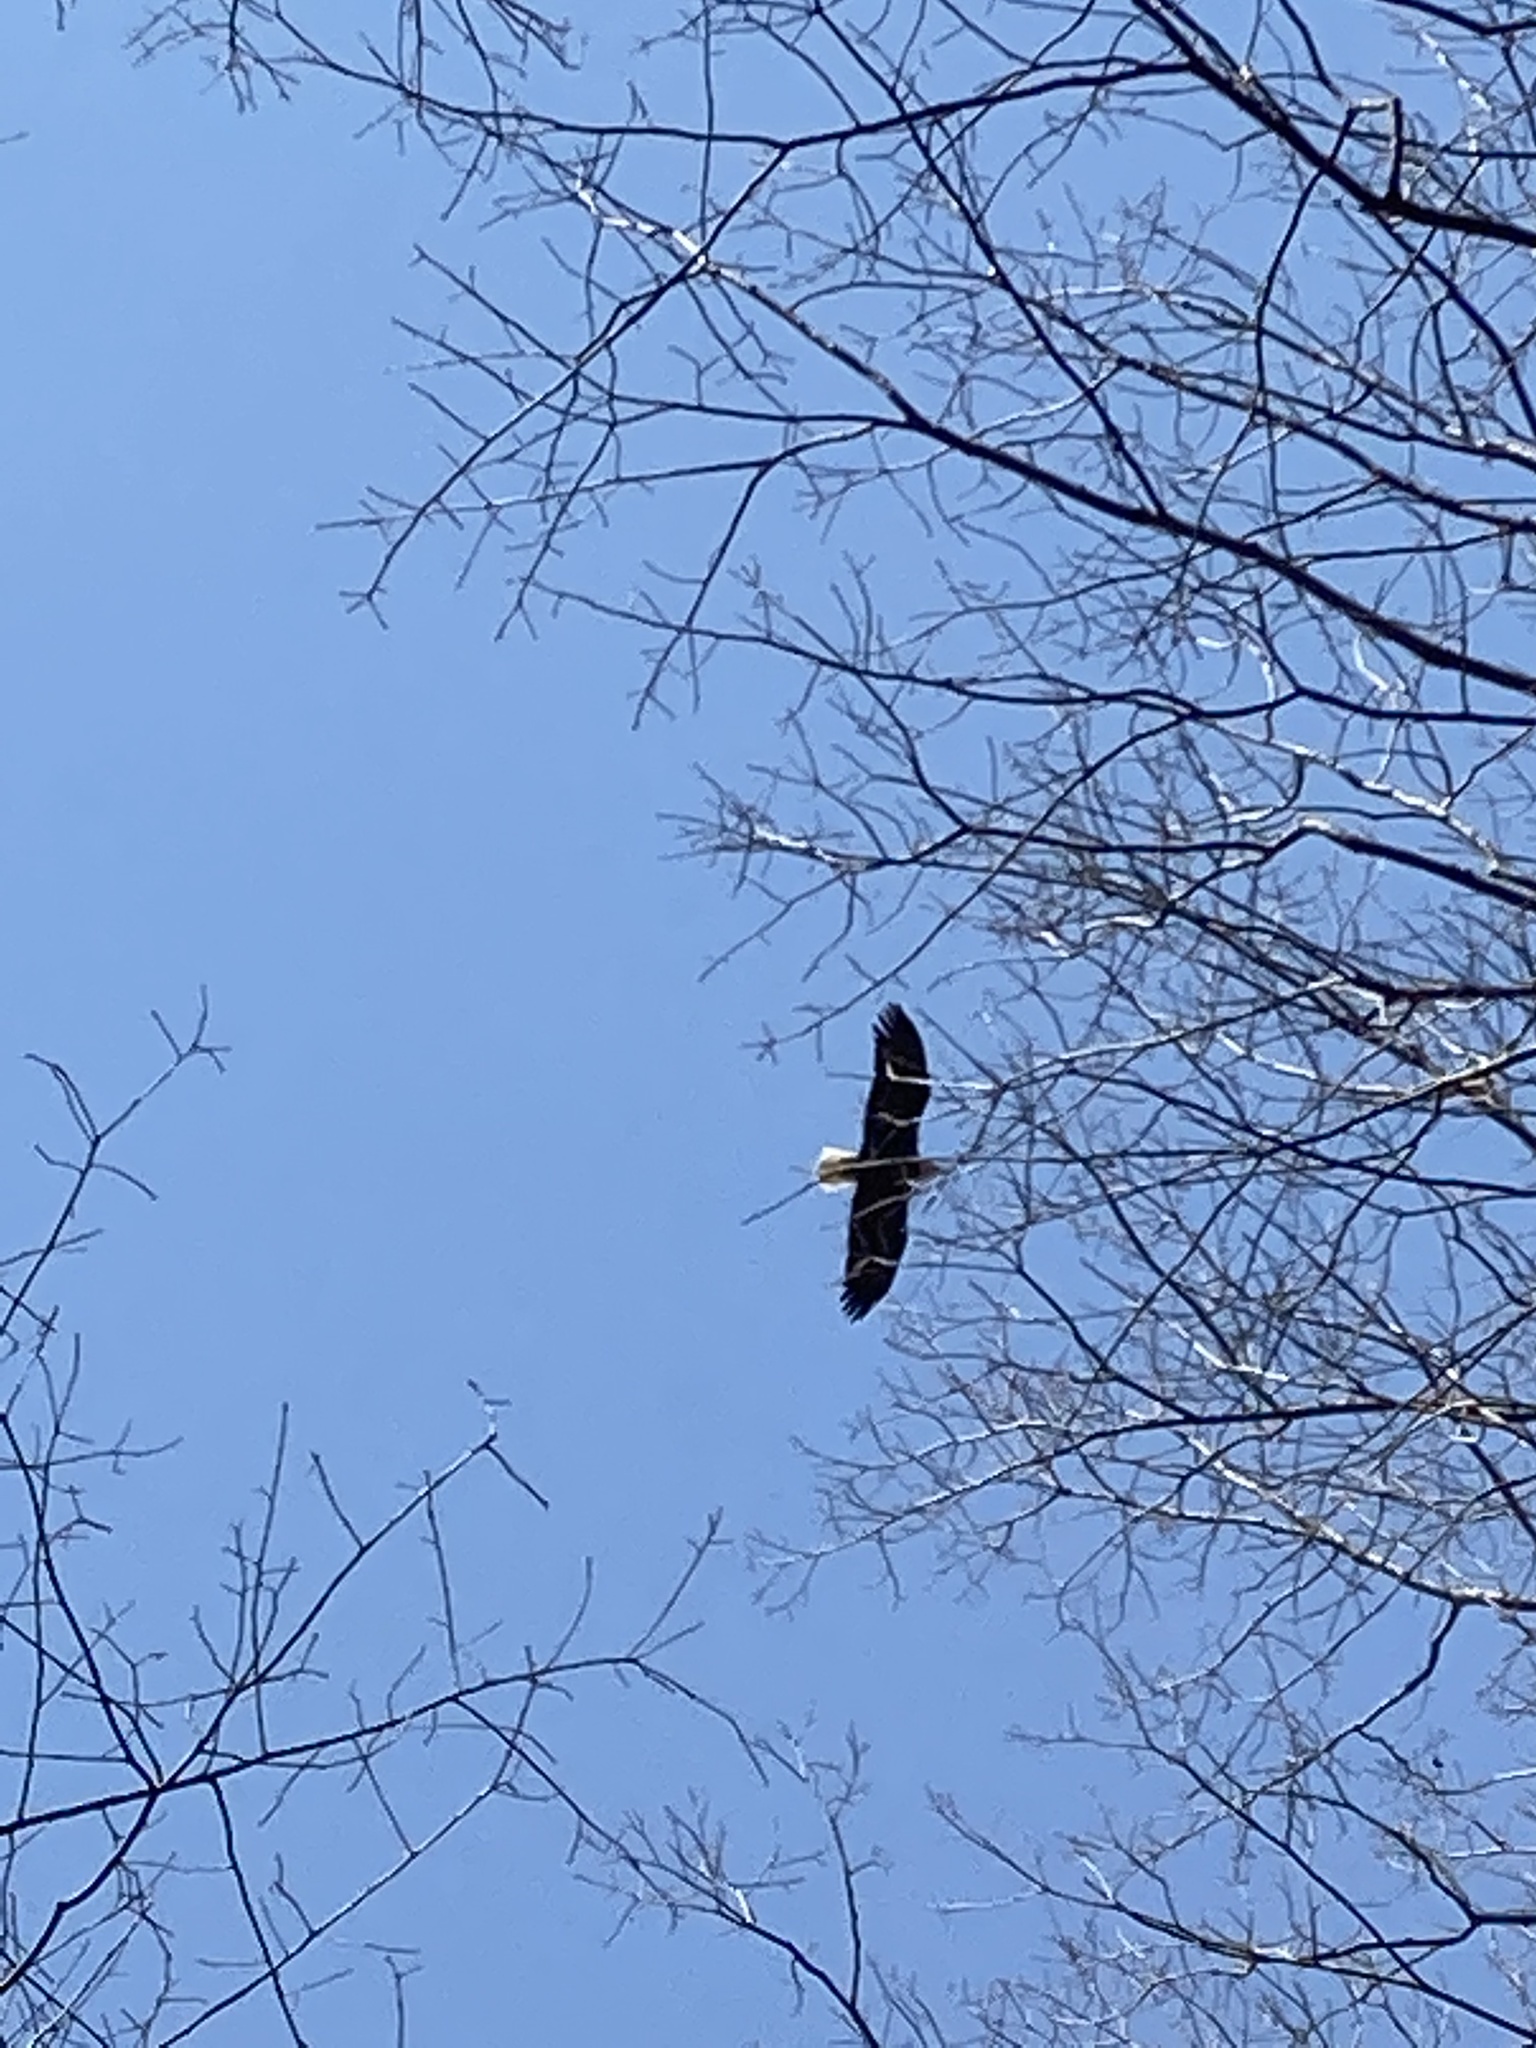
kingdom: Animalia
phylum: Chordata
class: Aves
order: Accipitriformes
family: Accipitridae
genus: Haliaeetus
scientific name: Haliaeetus leucocephalus
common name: Bald eagle
